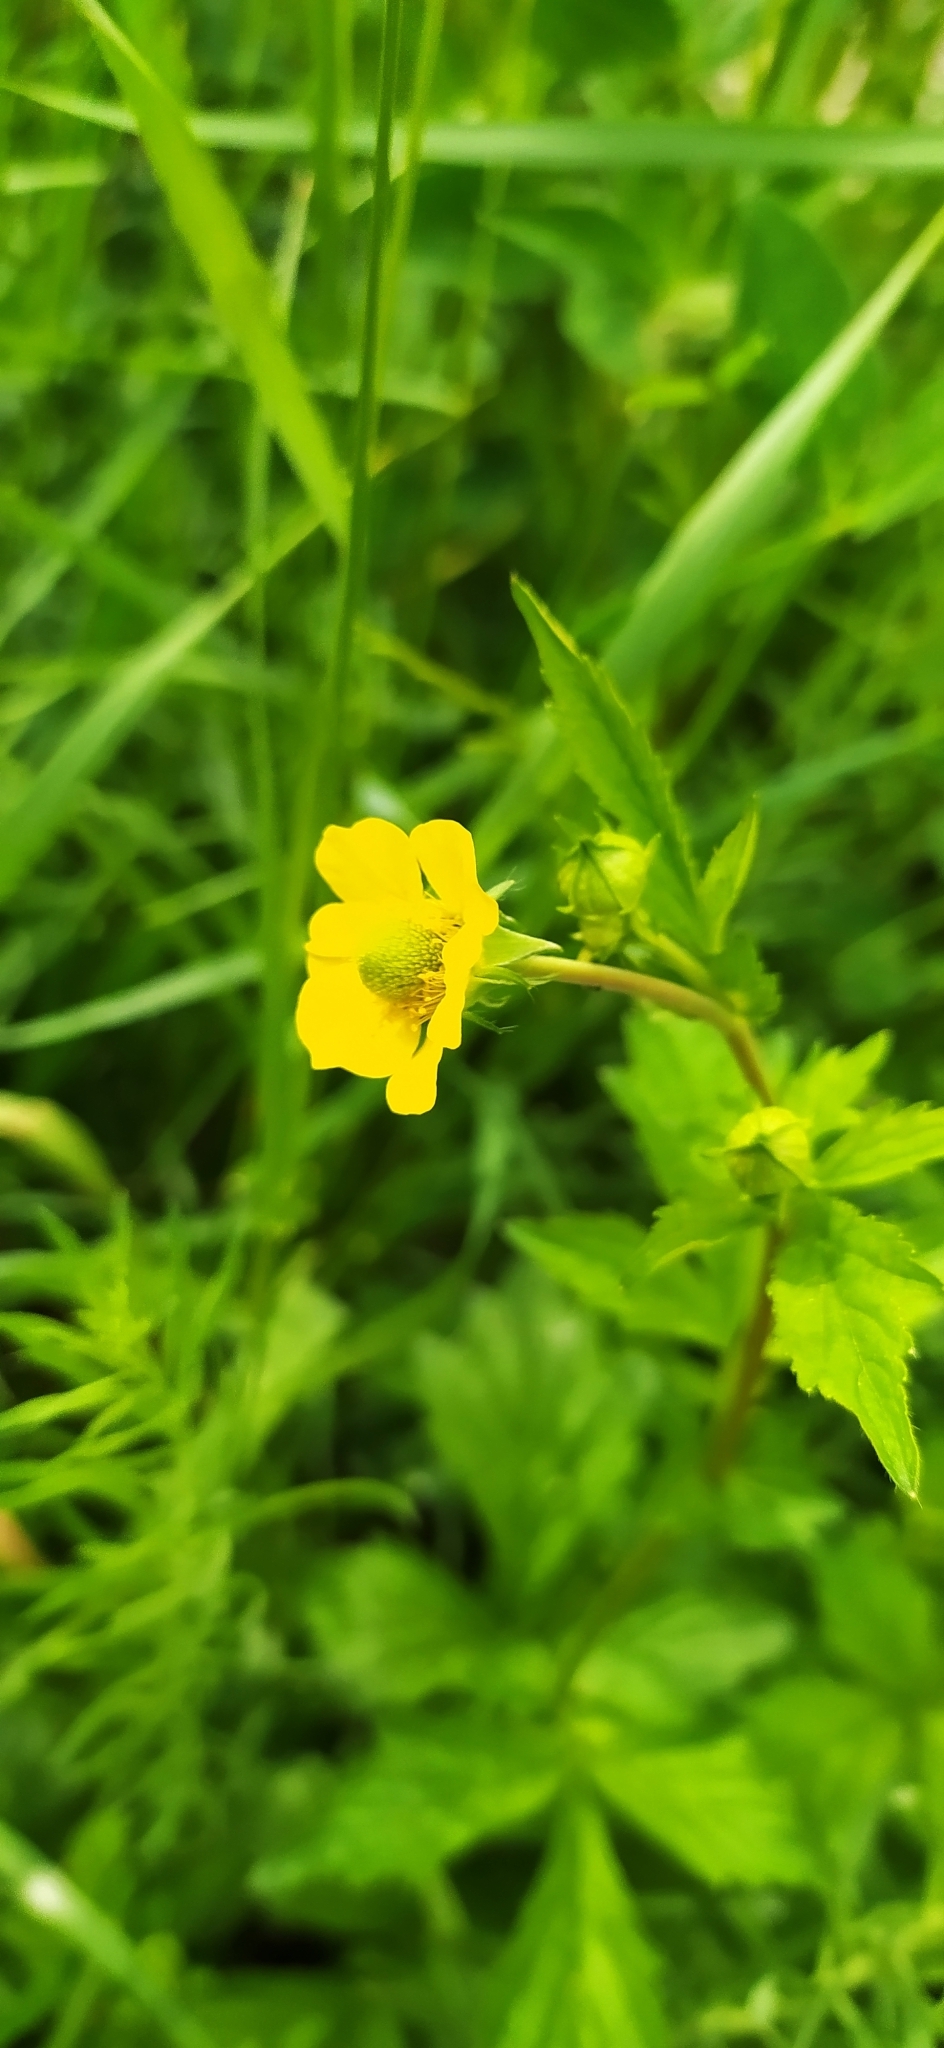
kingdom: Plantae
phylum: Tracheophyta
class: Magnoliopsida
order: Rosales
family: Rosaceae
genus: Geum
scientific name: Geum aleppicum
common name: Yellow avens
